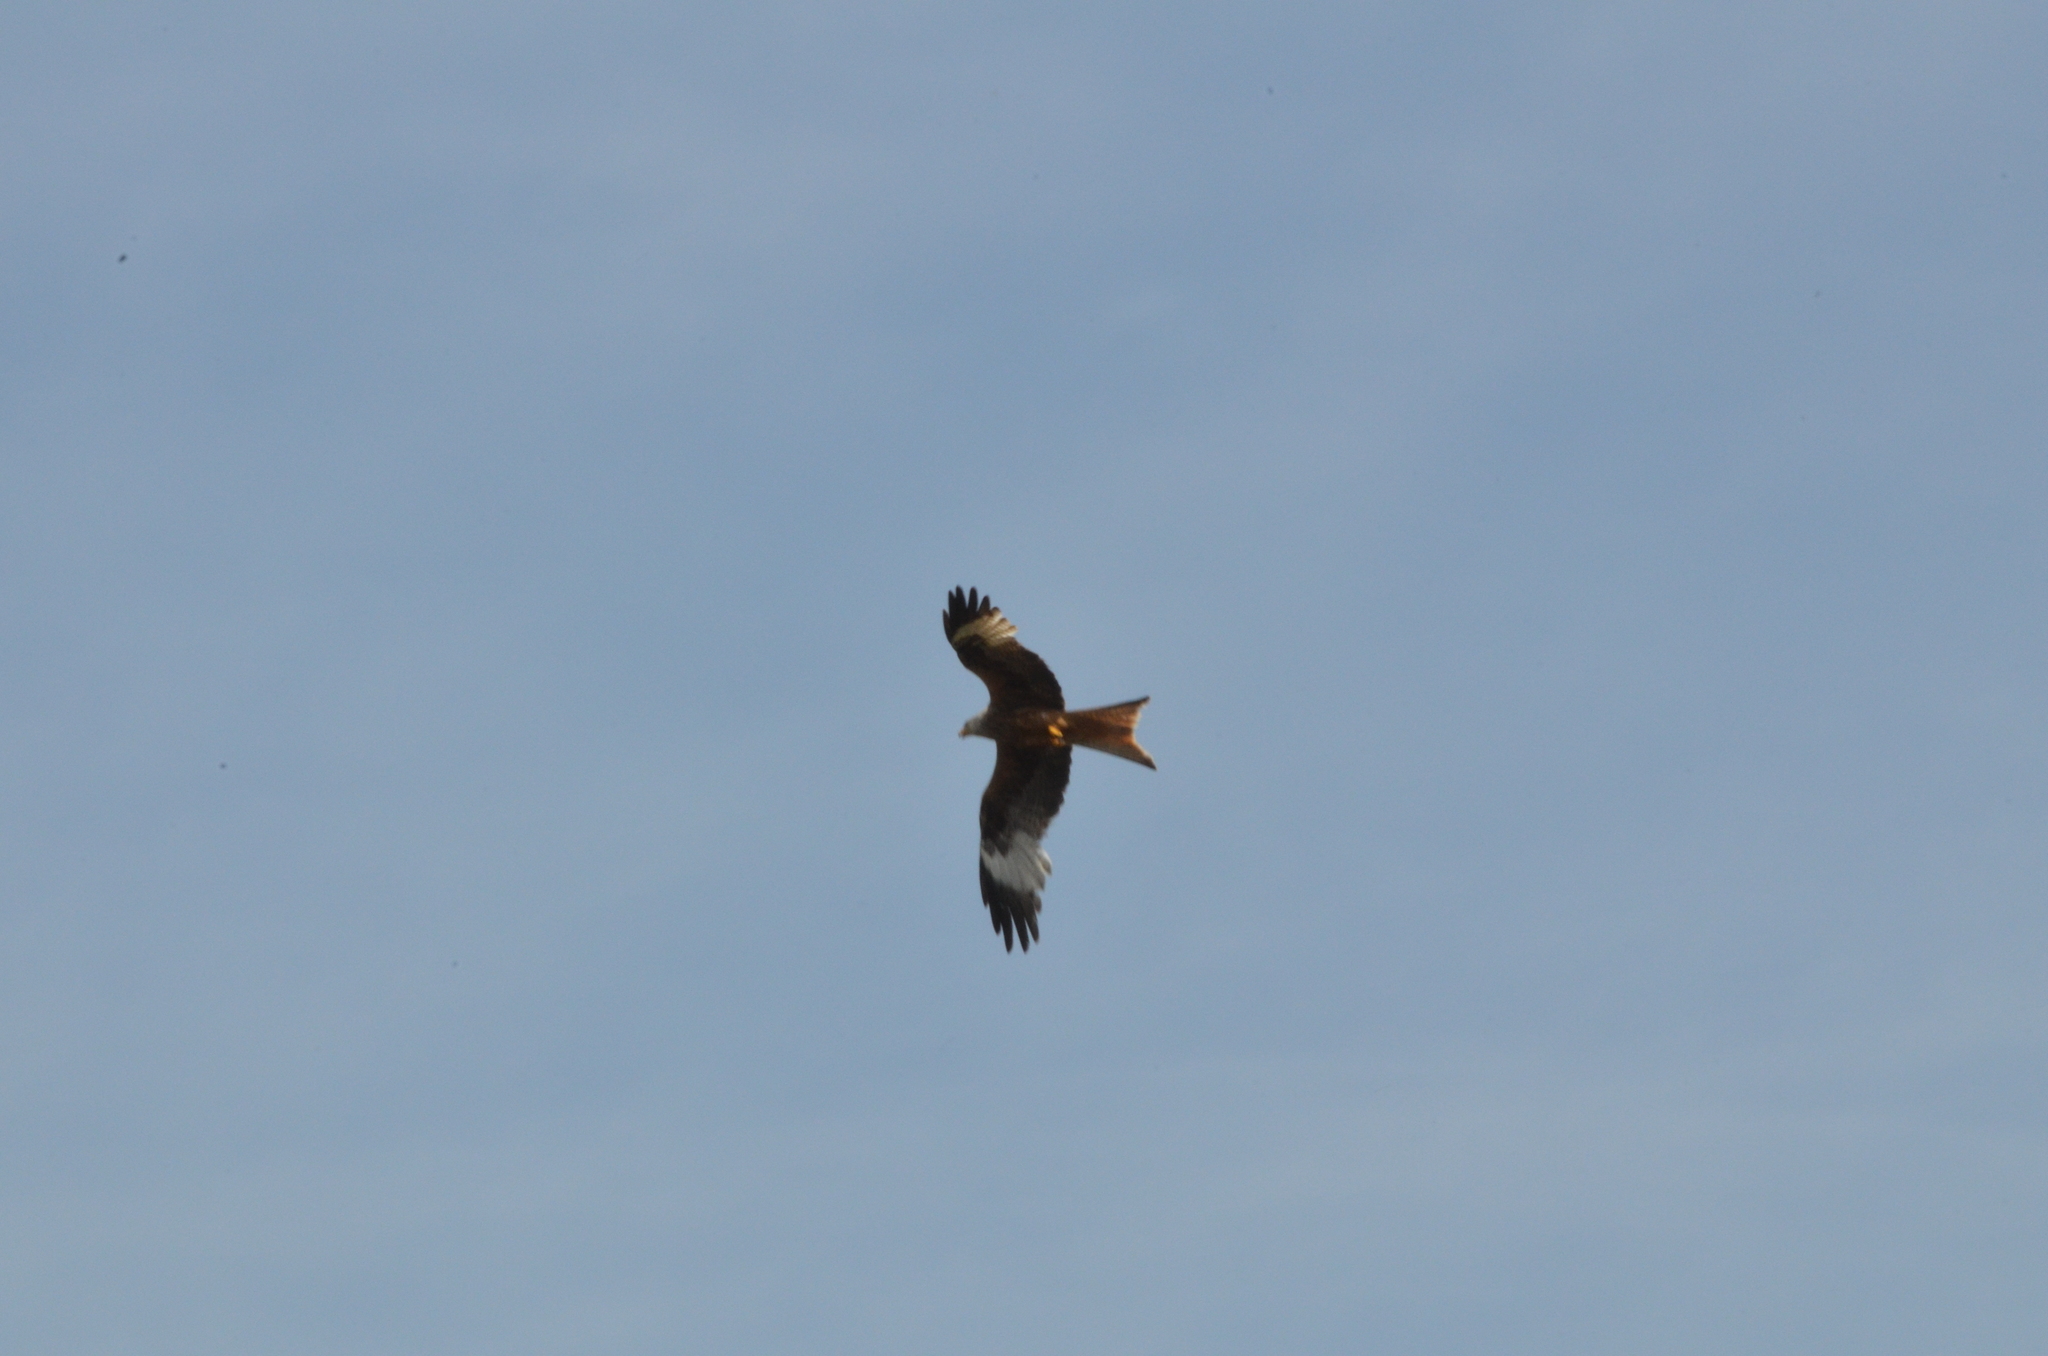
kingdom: Animalia
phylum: Chordata
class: Aves
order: Accipitriformes
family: Accipitridae
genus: Milvus
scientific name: Milvus milvus
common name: Red kite
